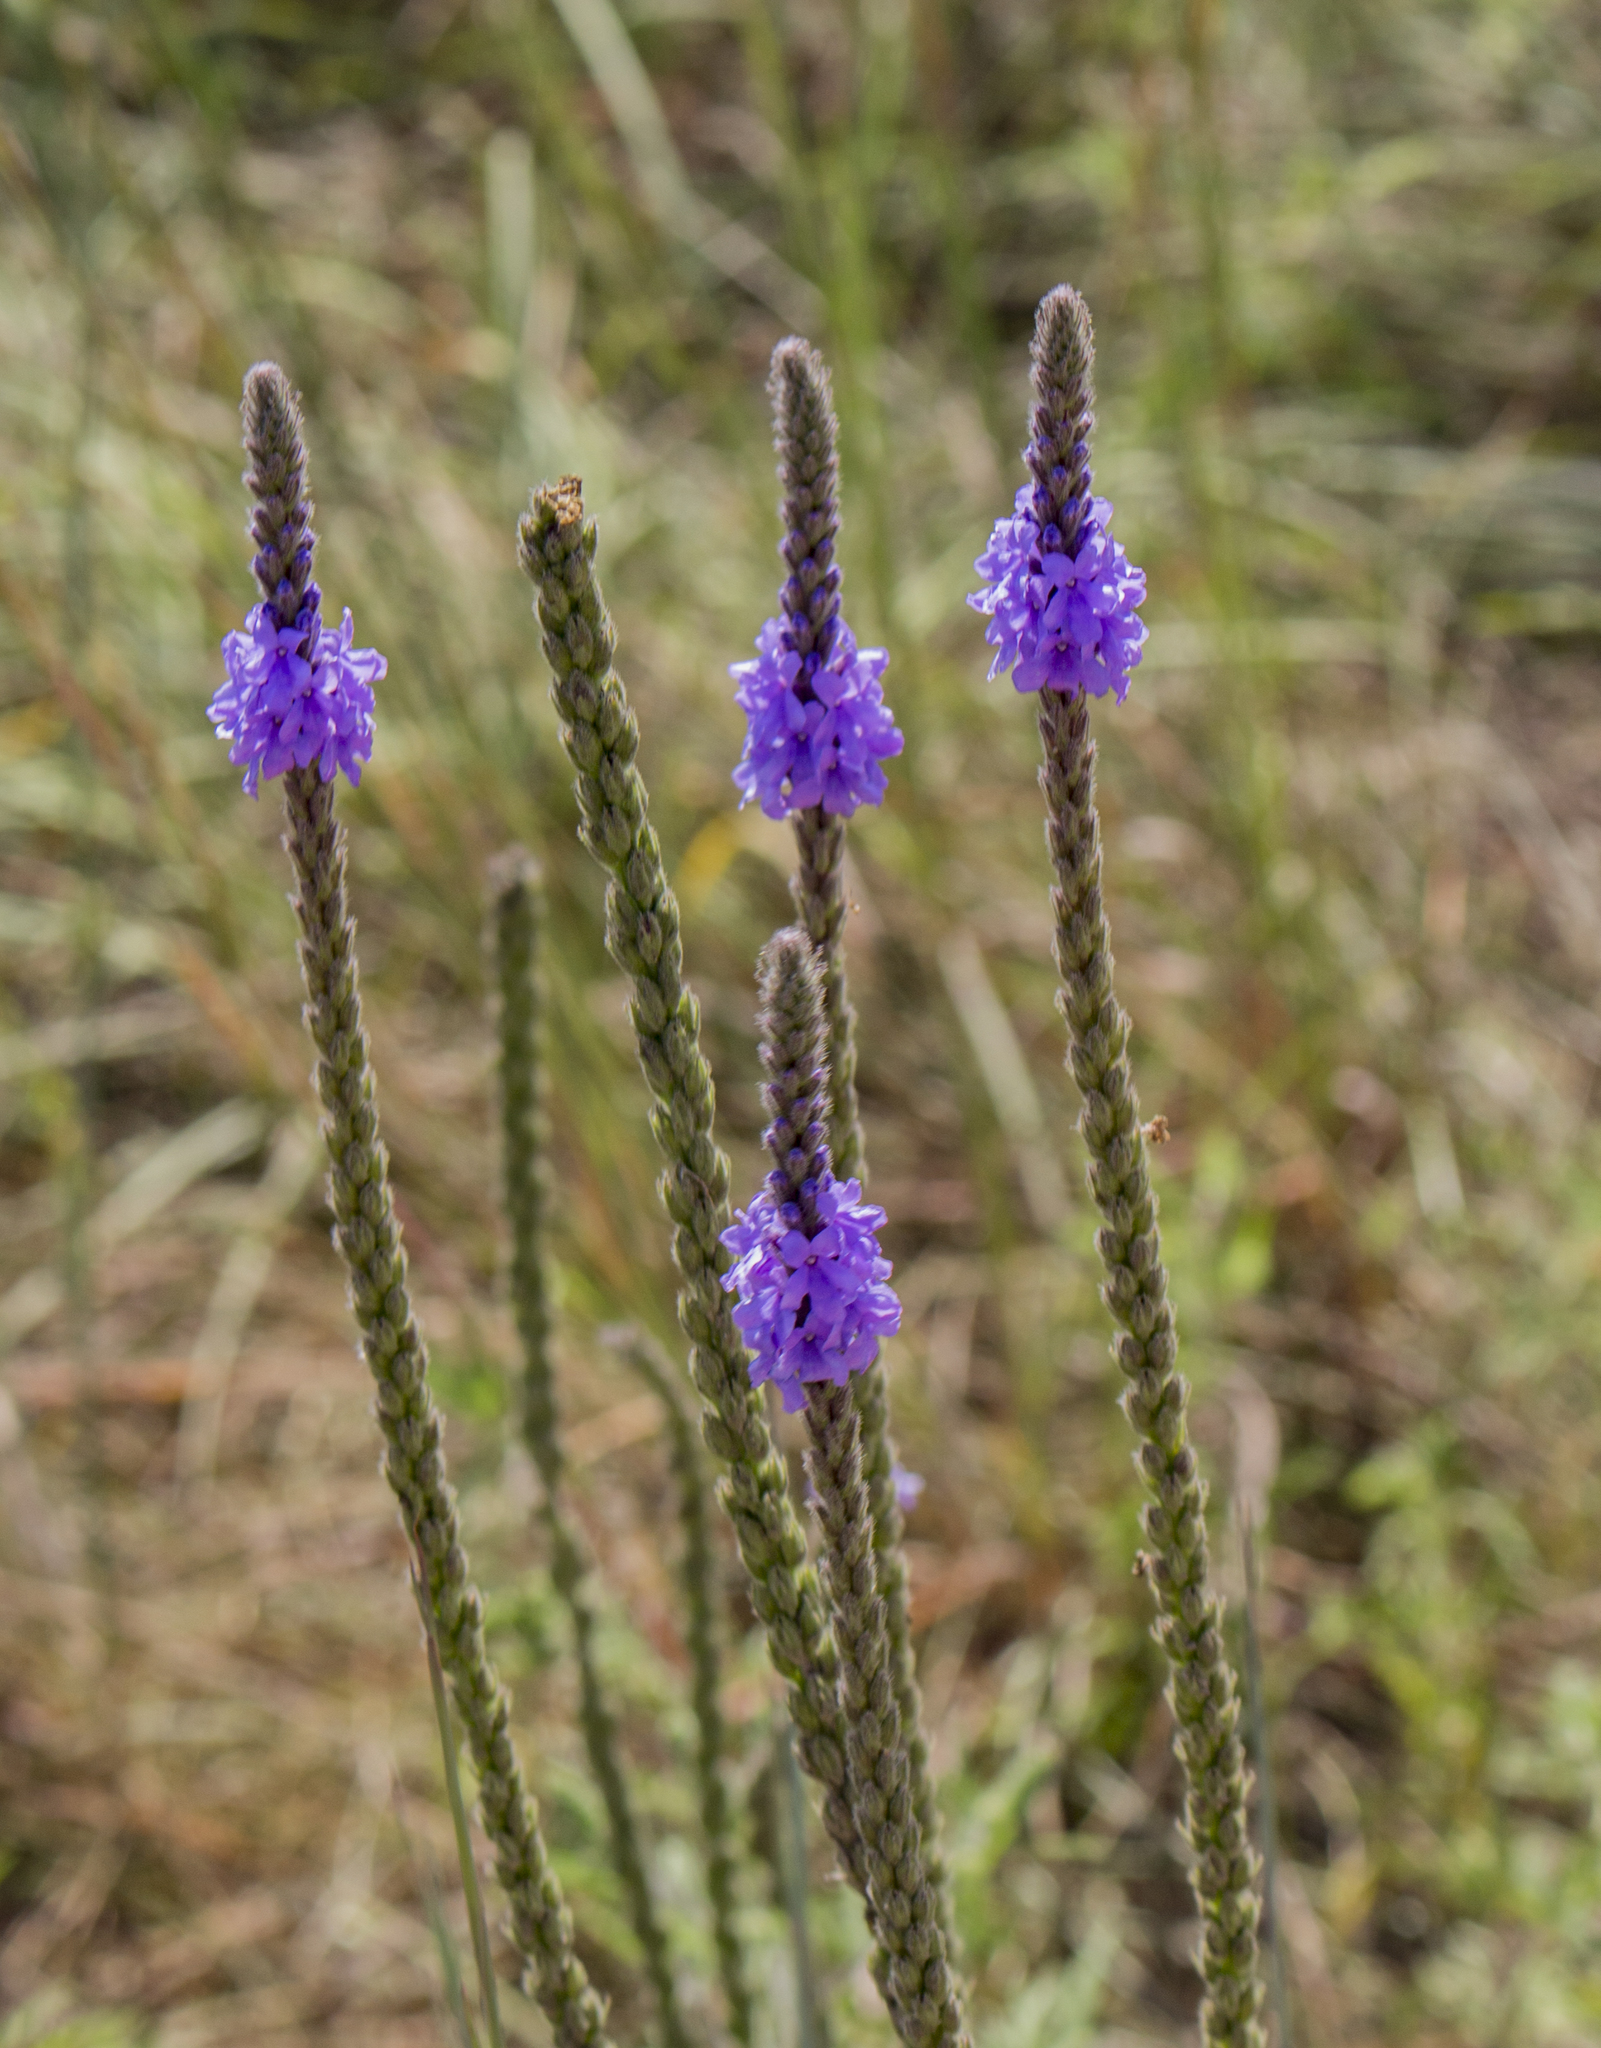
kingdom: Plantae
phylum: Tracheophyta
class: Magnoliopsida
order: Lamiales
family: Verbenaceae
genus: Verbena
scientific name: Verbena stricta
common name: Hoary vervain
